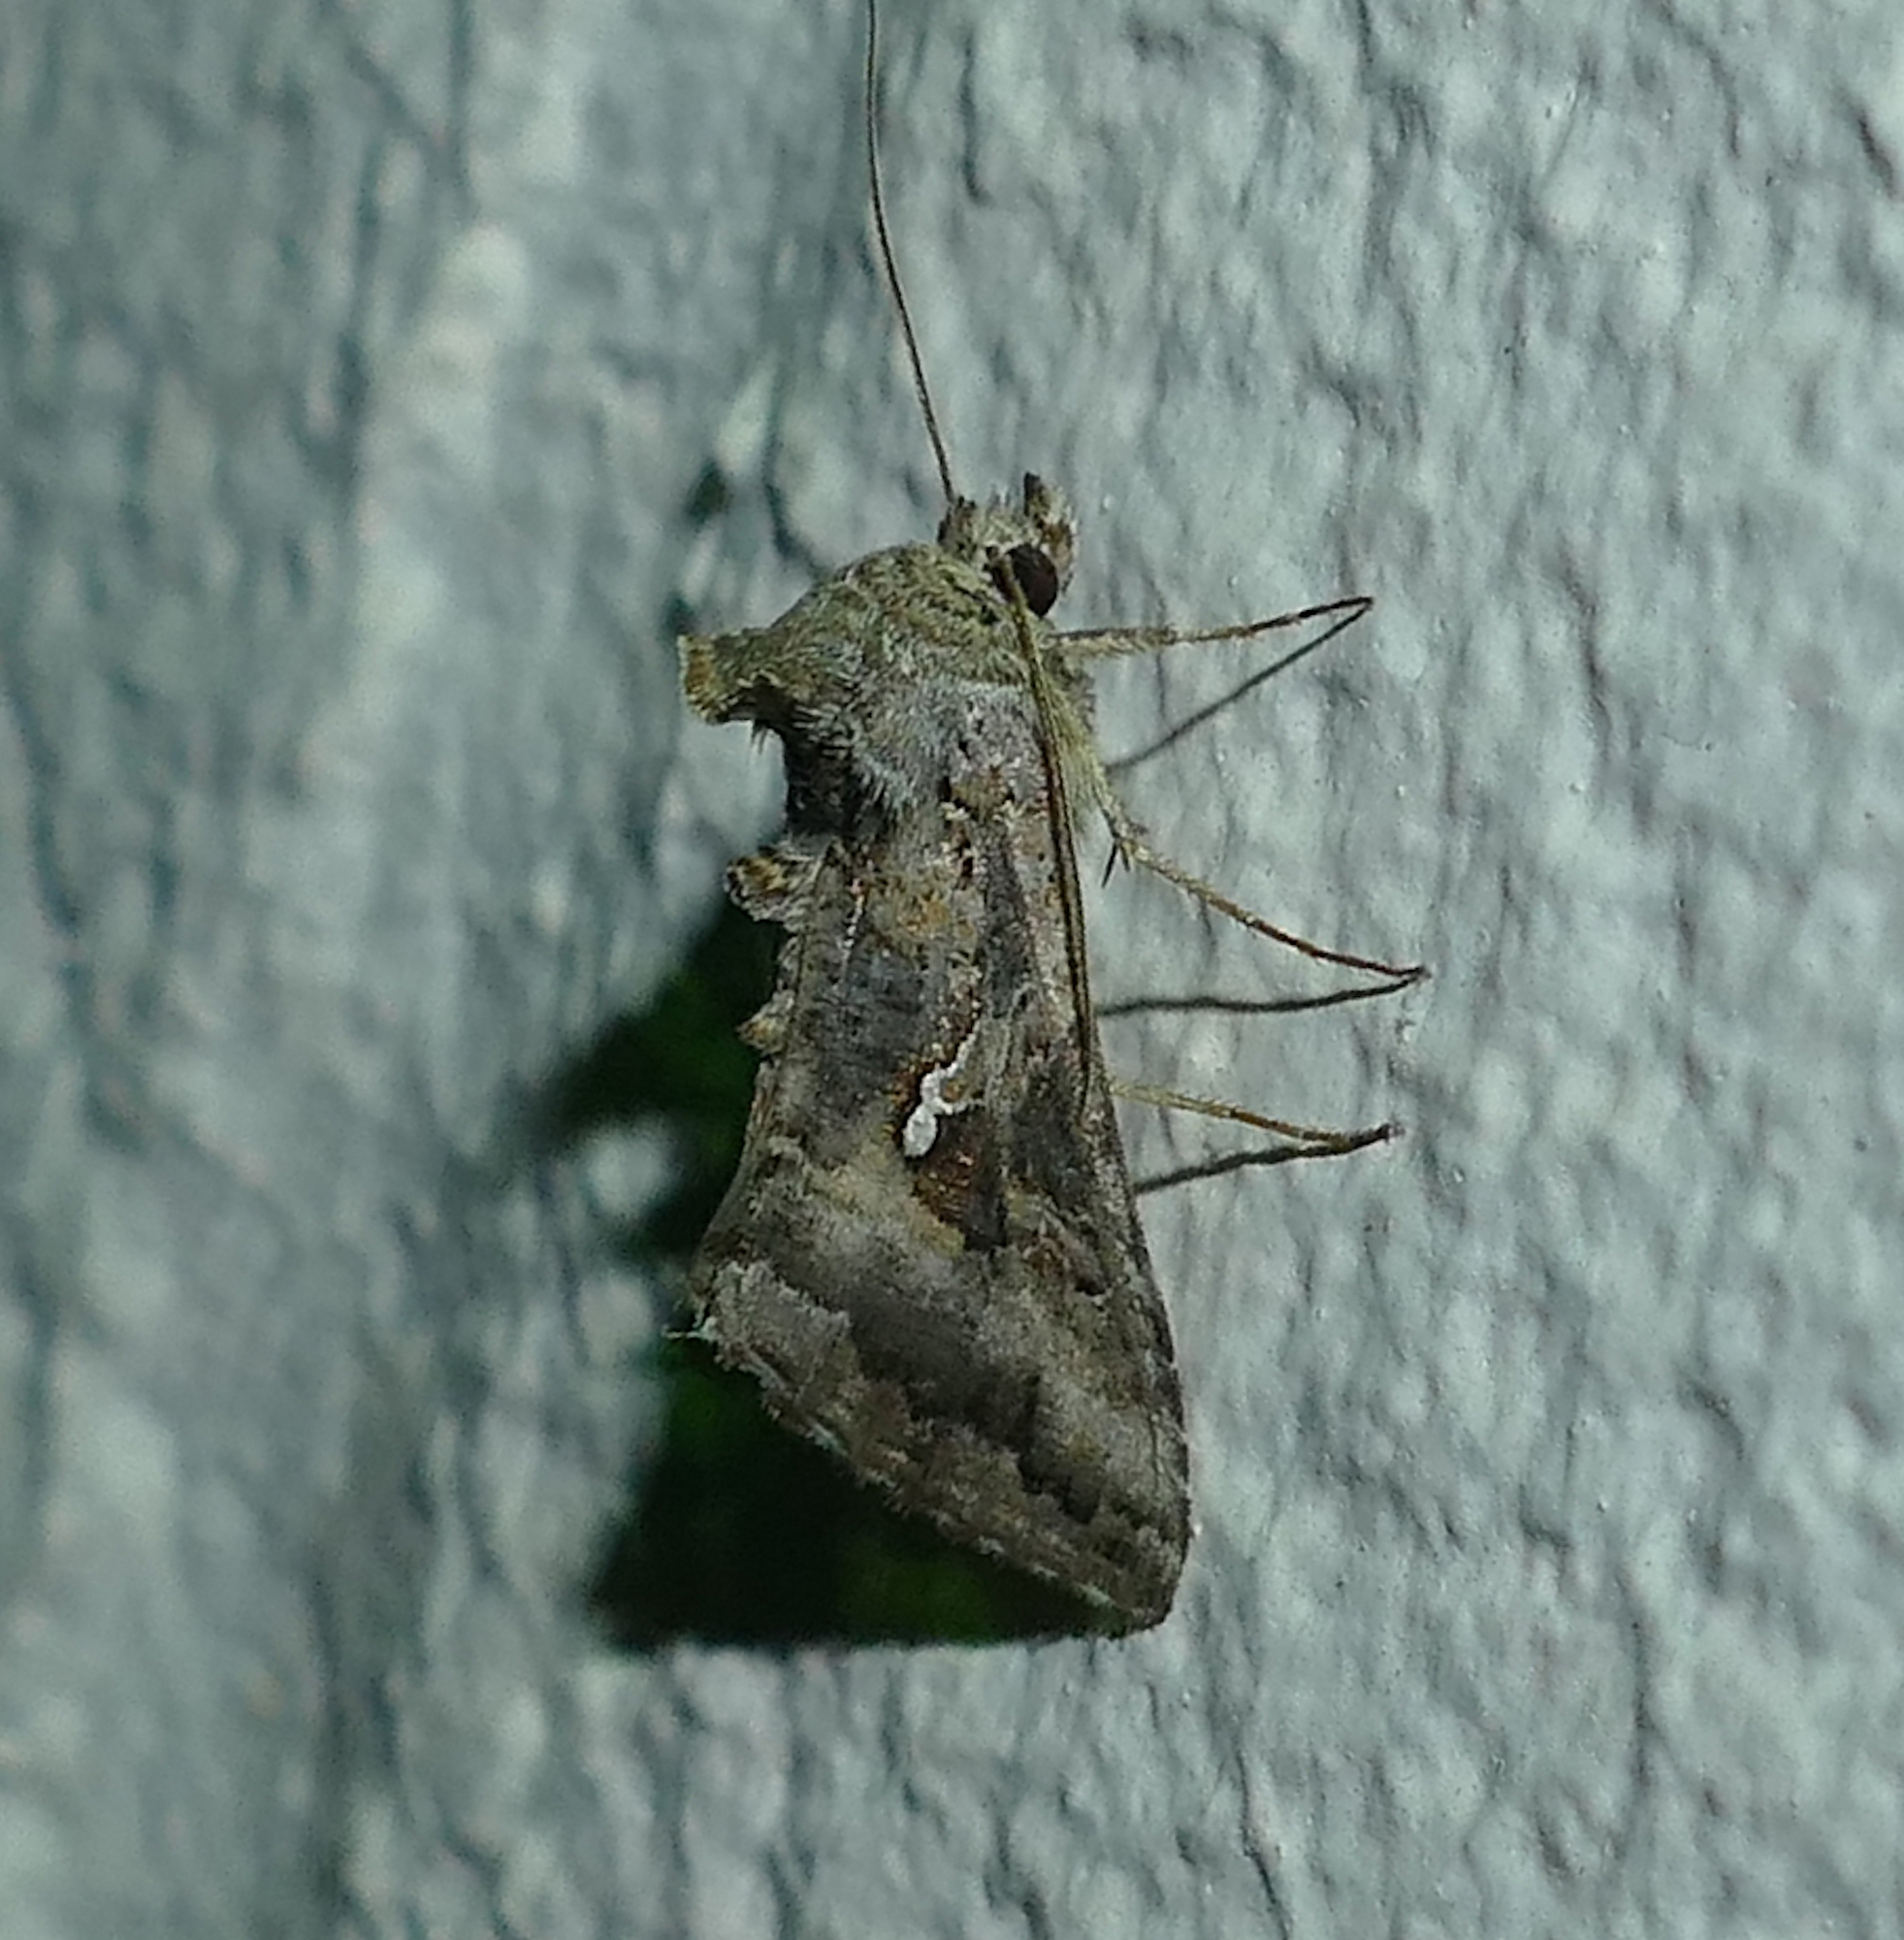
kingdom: Animalia
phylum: Arthropoda
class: Insecta
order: Lepidoptera
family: Noctuidae
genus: Rachiplusia
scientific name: Rachiplusia ou
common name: Gray looper moth
